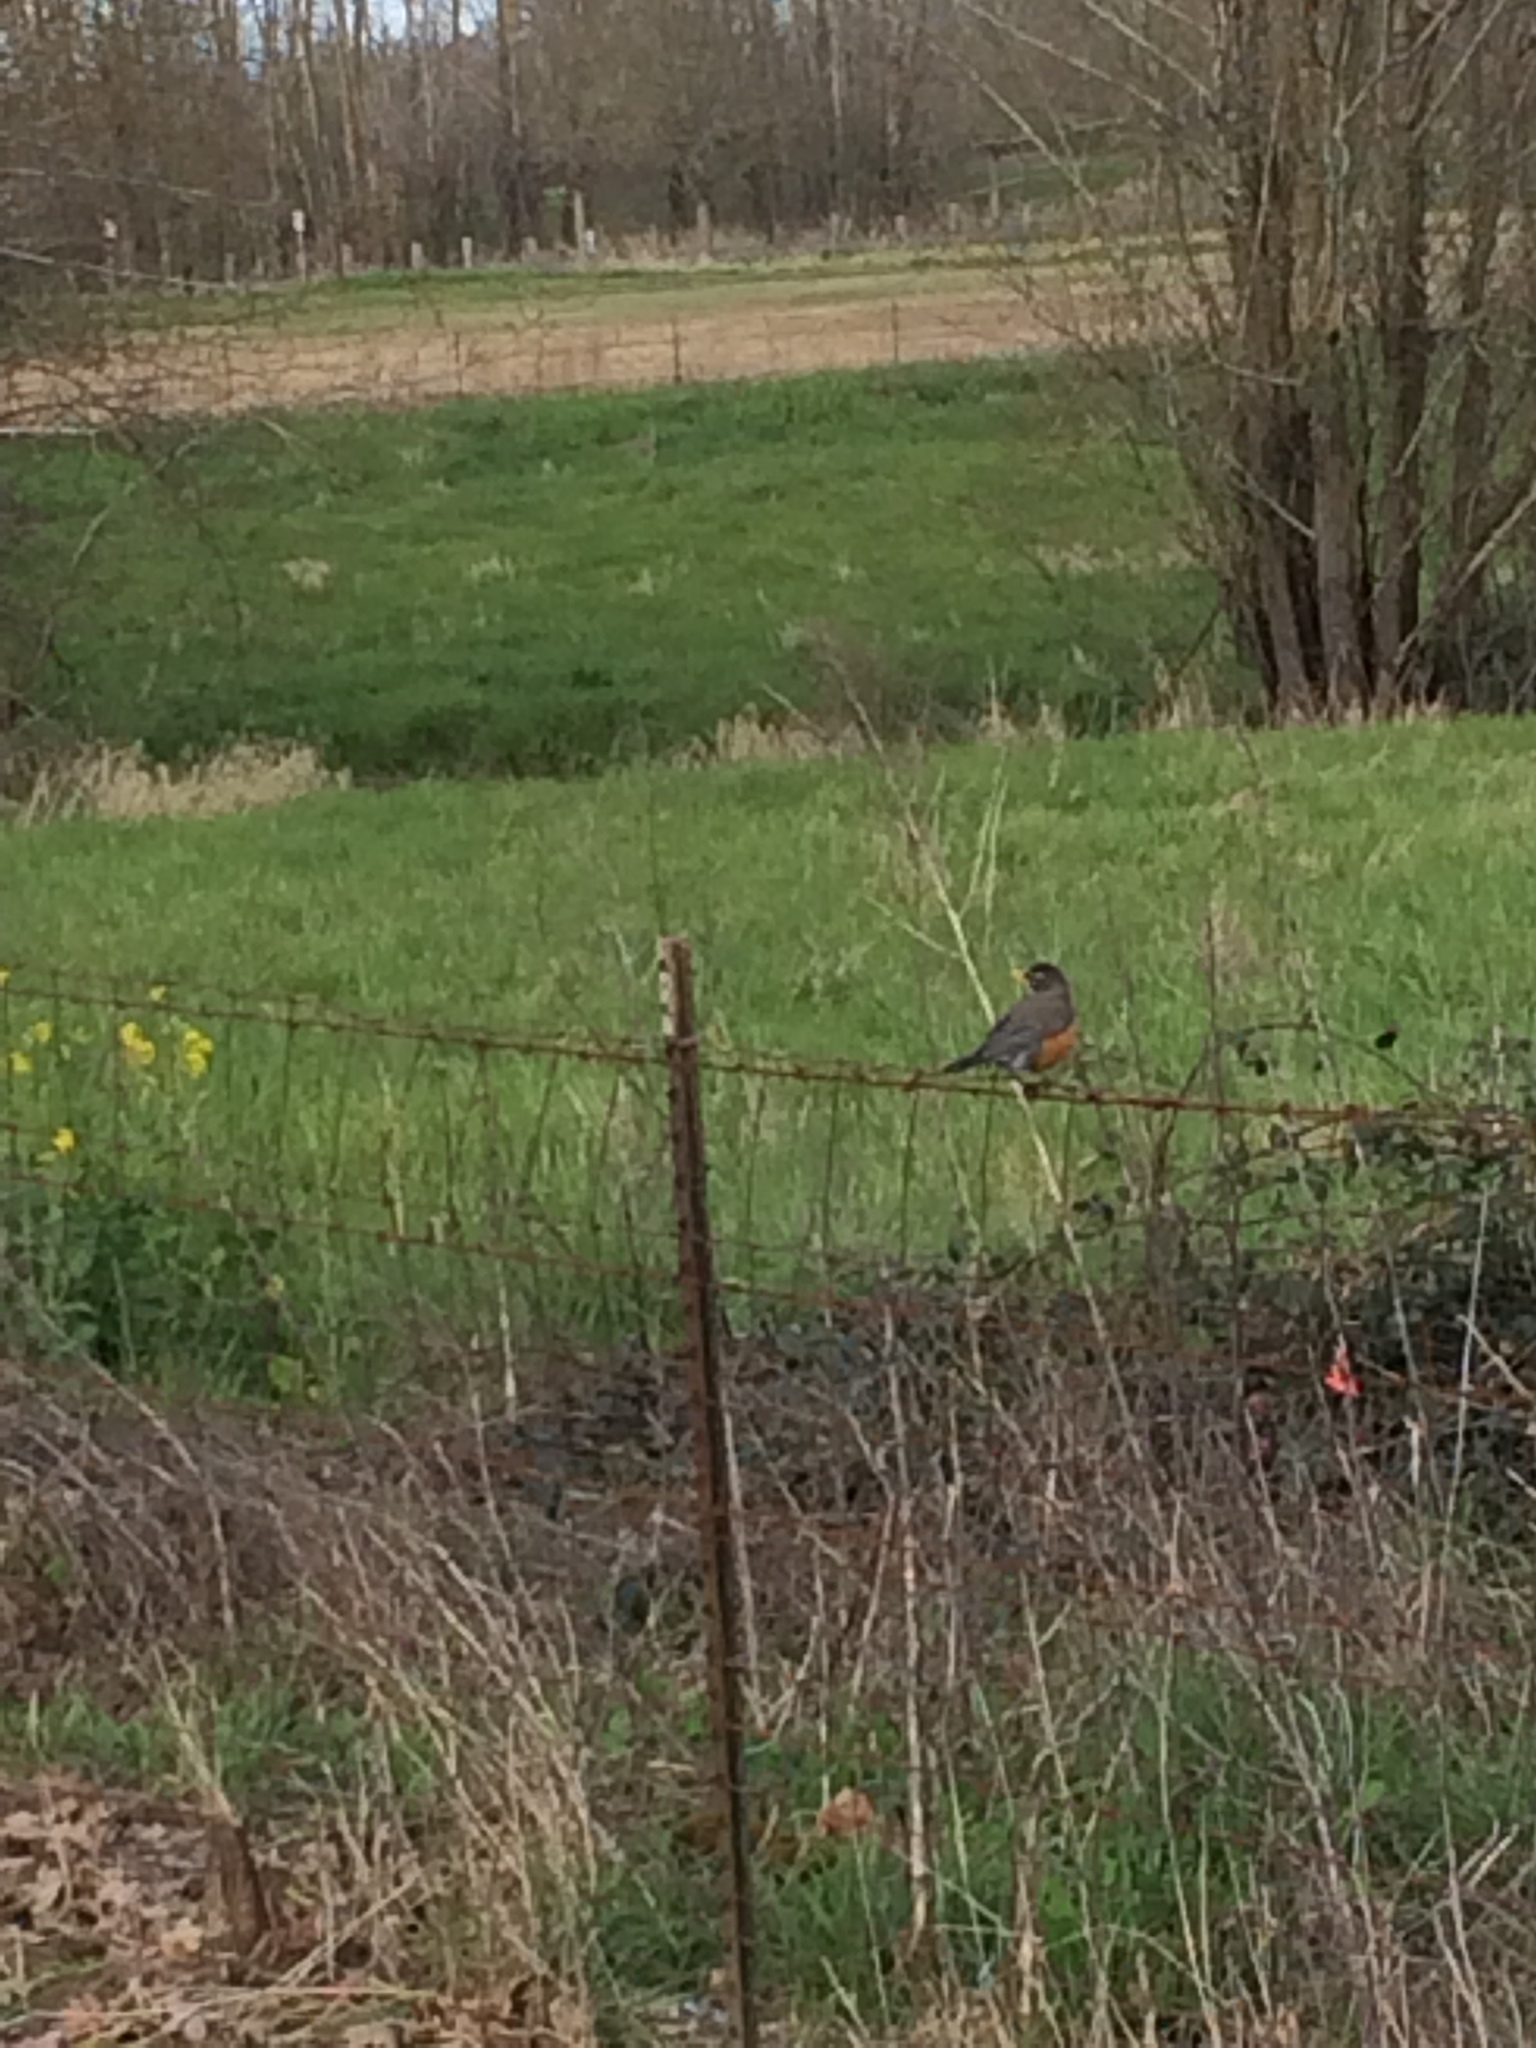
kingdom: Animalia
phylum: Chordata
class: Aves
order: Passeriformes
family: Turdidae
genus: Turdus
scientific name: Turdus migratorius
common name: American robin
